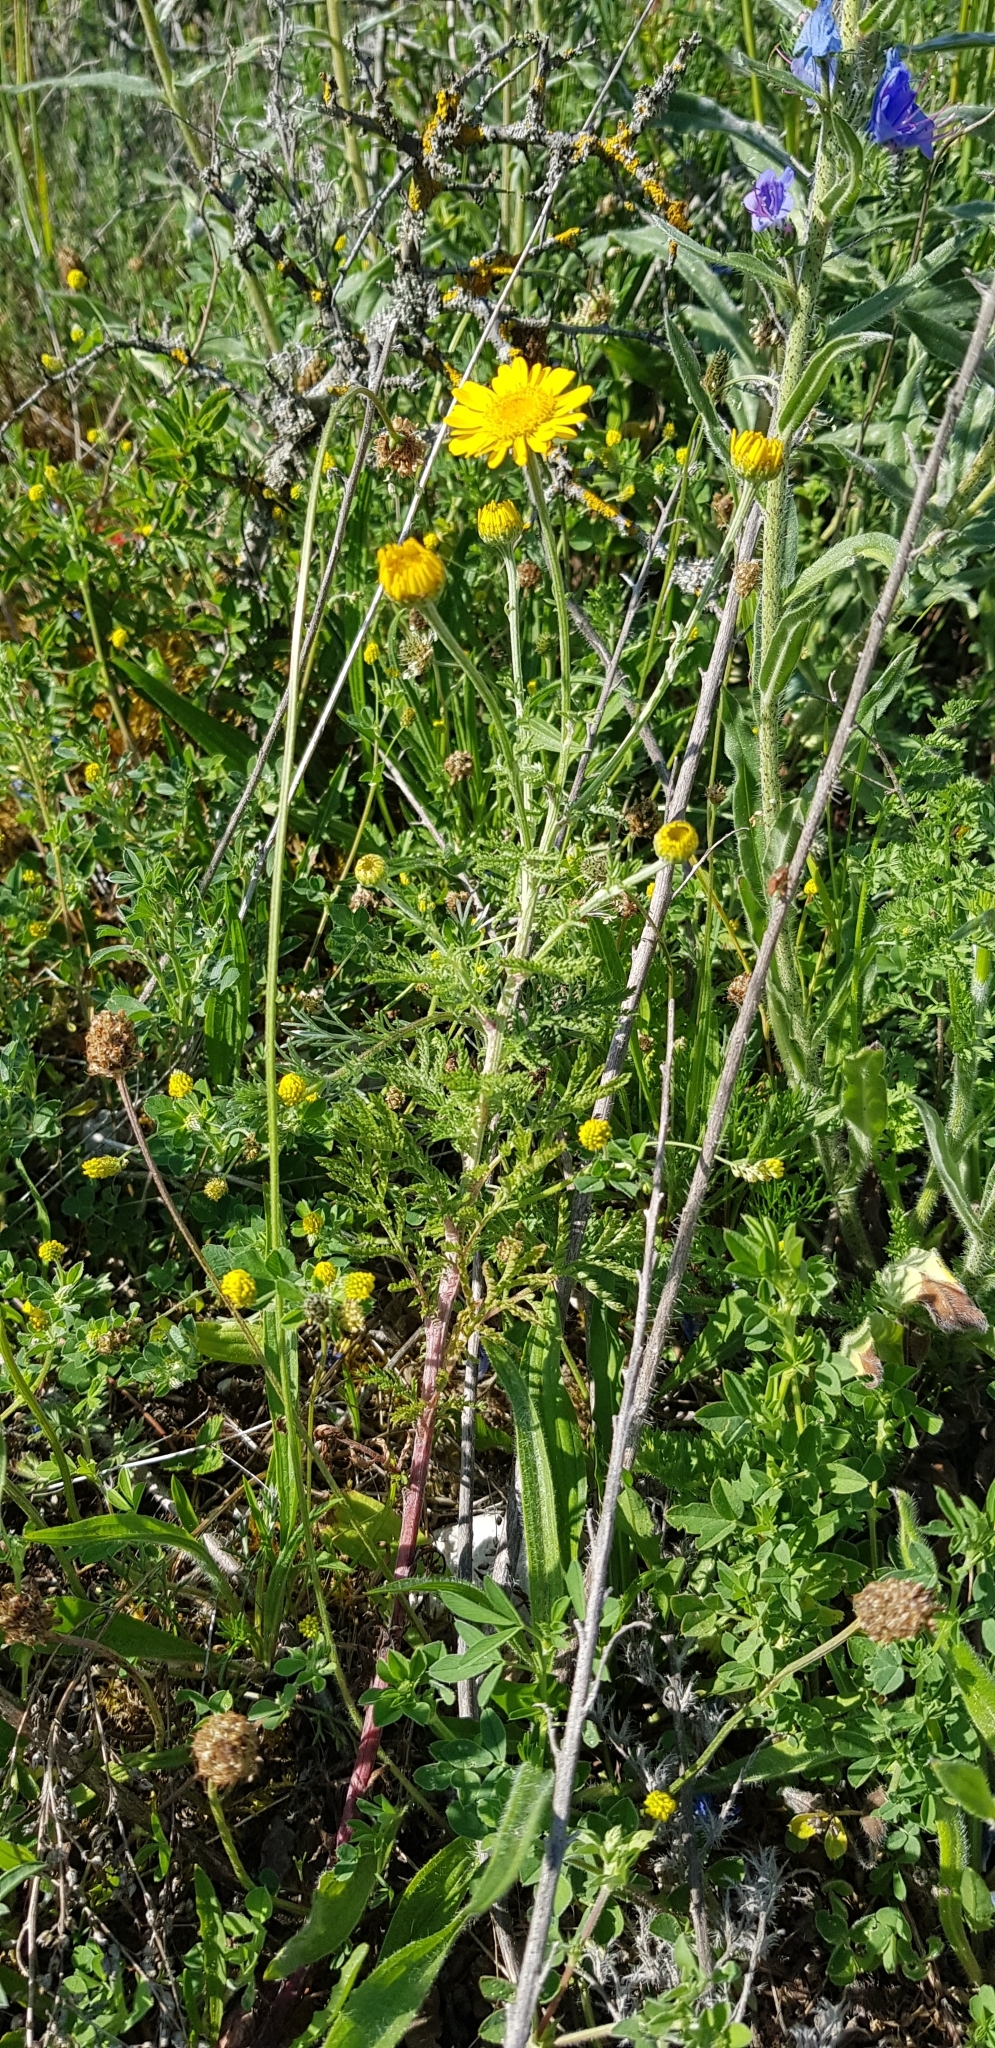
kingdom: Plantae
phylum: Tracheophyta
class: Magnoliopsida
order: Asterales
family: Asteraceae
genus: Cota
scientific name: Cota tinctoria
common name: Golden chamomile
